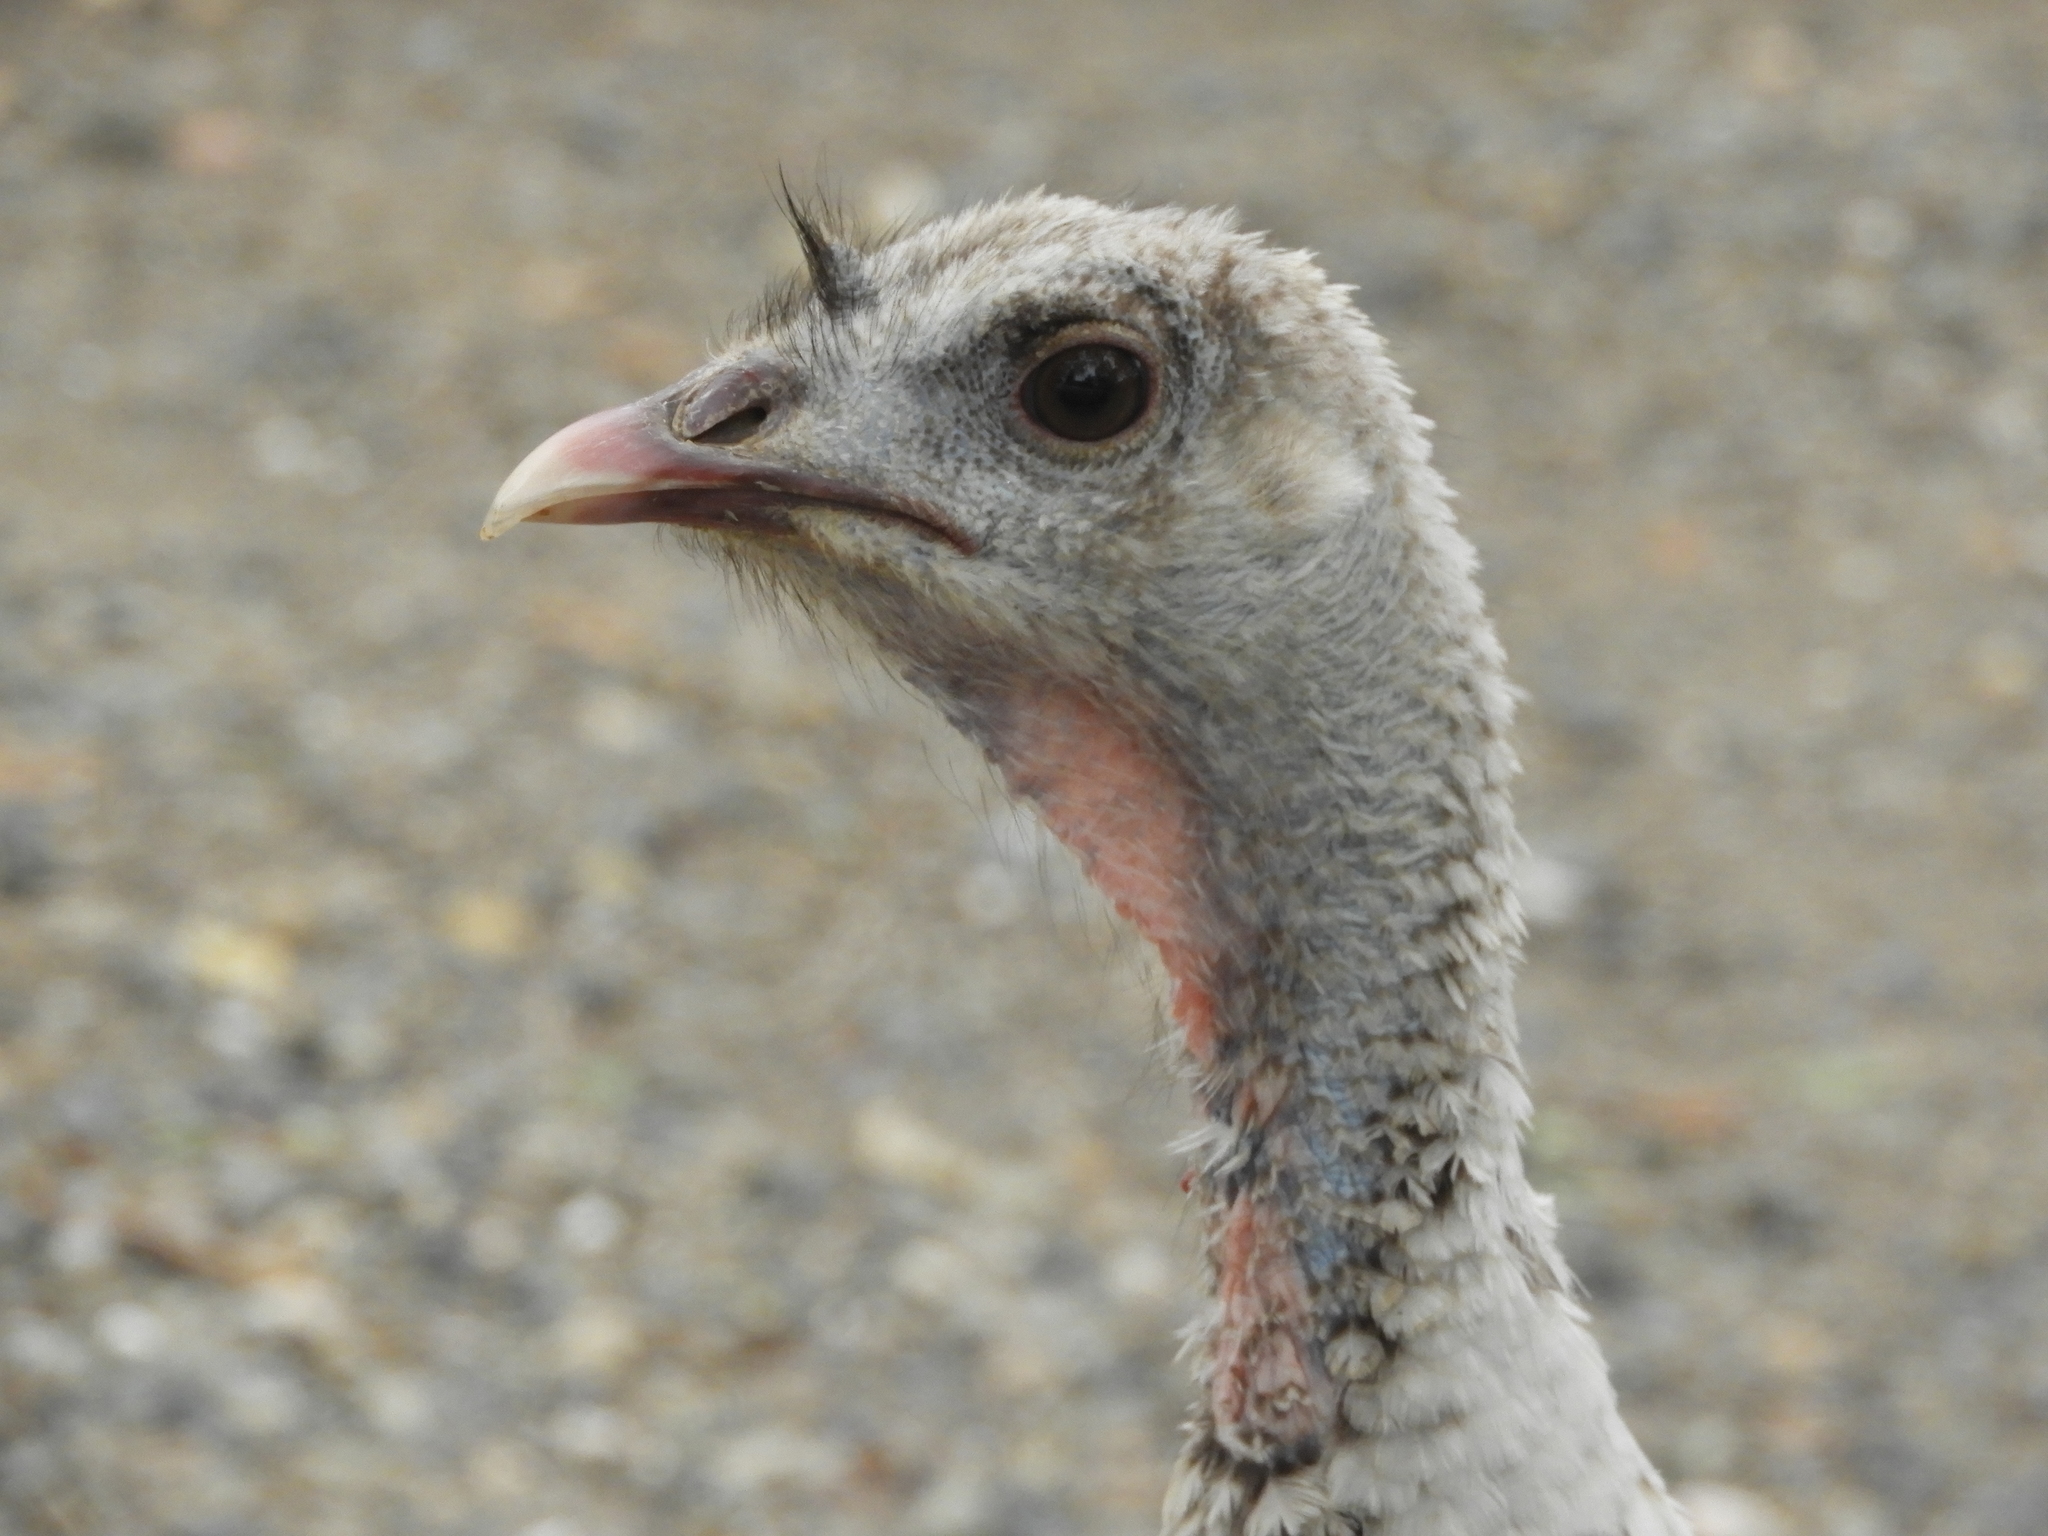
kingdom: Animalia
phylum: Chordata
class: Aves
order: Galliformes
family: Phasianidae
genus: Meleagris
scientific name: Meleagris gallopavo
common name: Wild turkey
